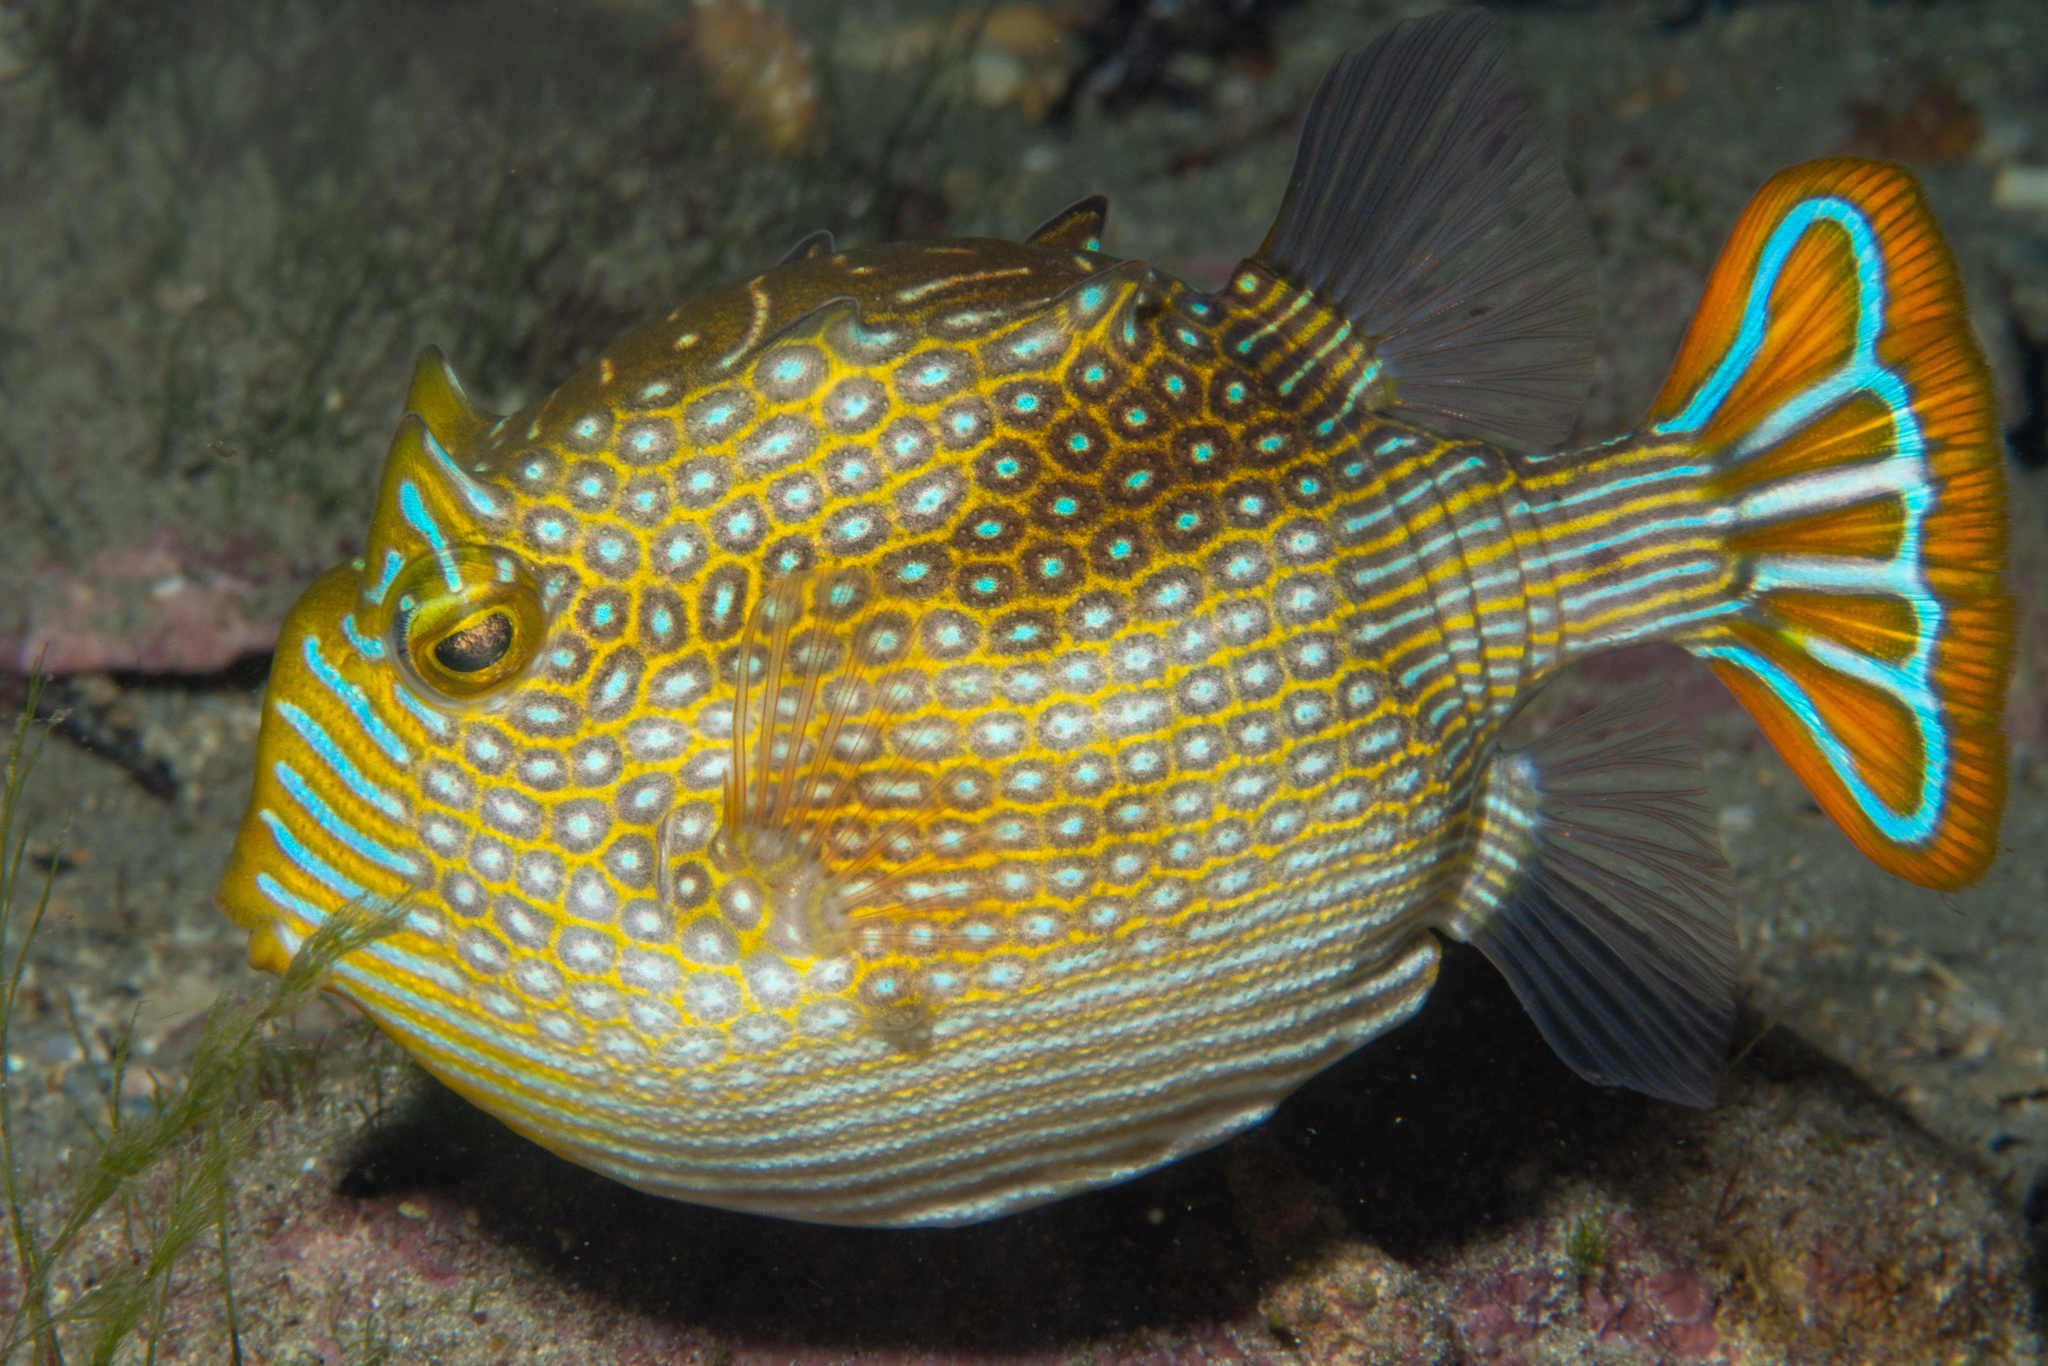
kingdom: Animalia
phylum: Chordata
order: Tetraodontiformes
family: Aracanidae
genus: Aracana
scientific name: Aracana ornata
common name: Ornate cowfish
